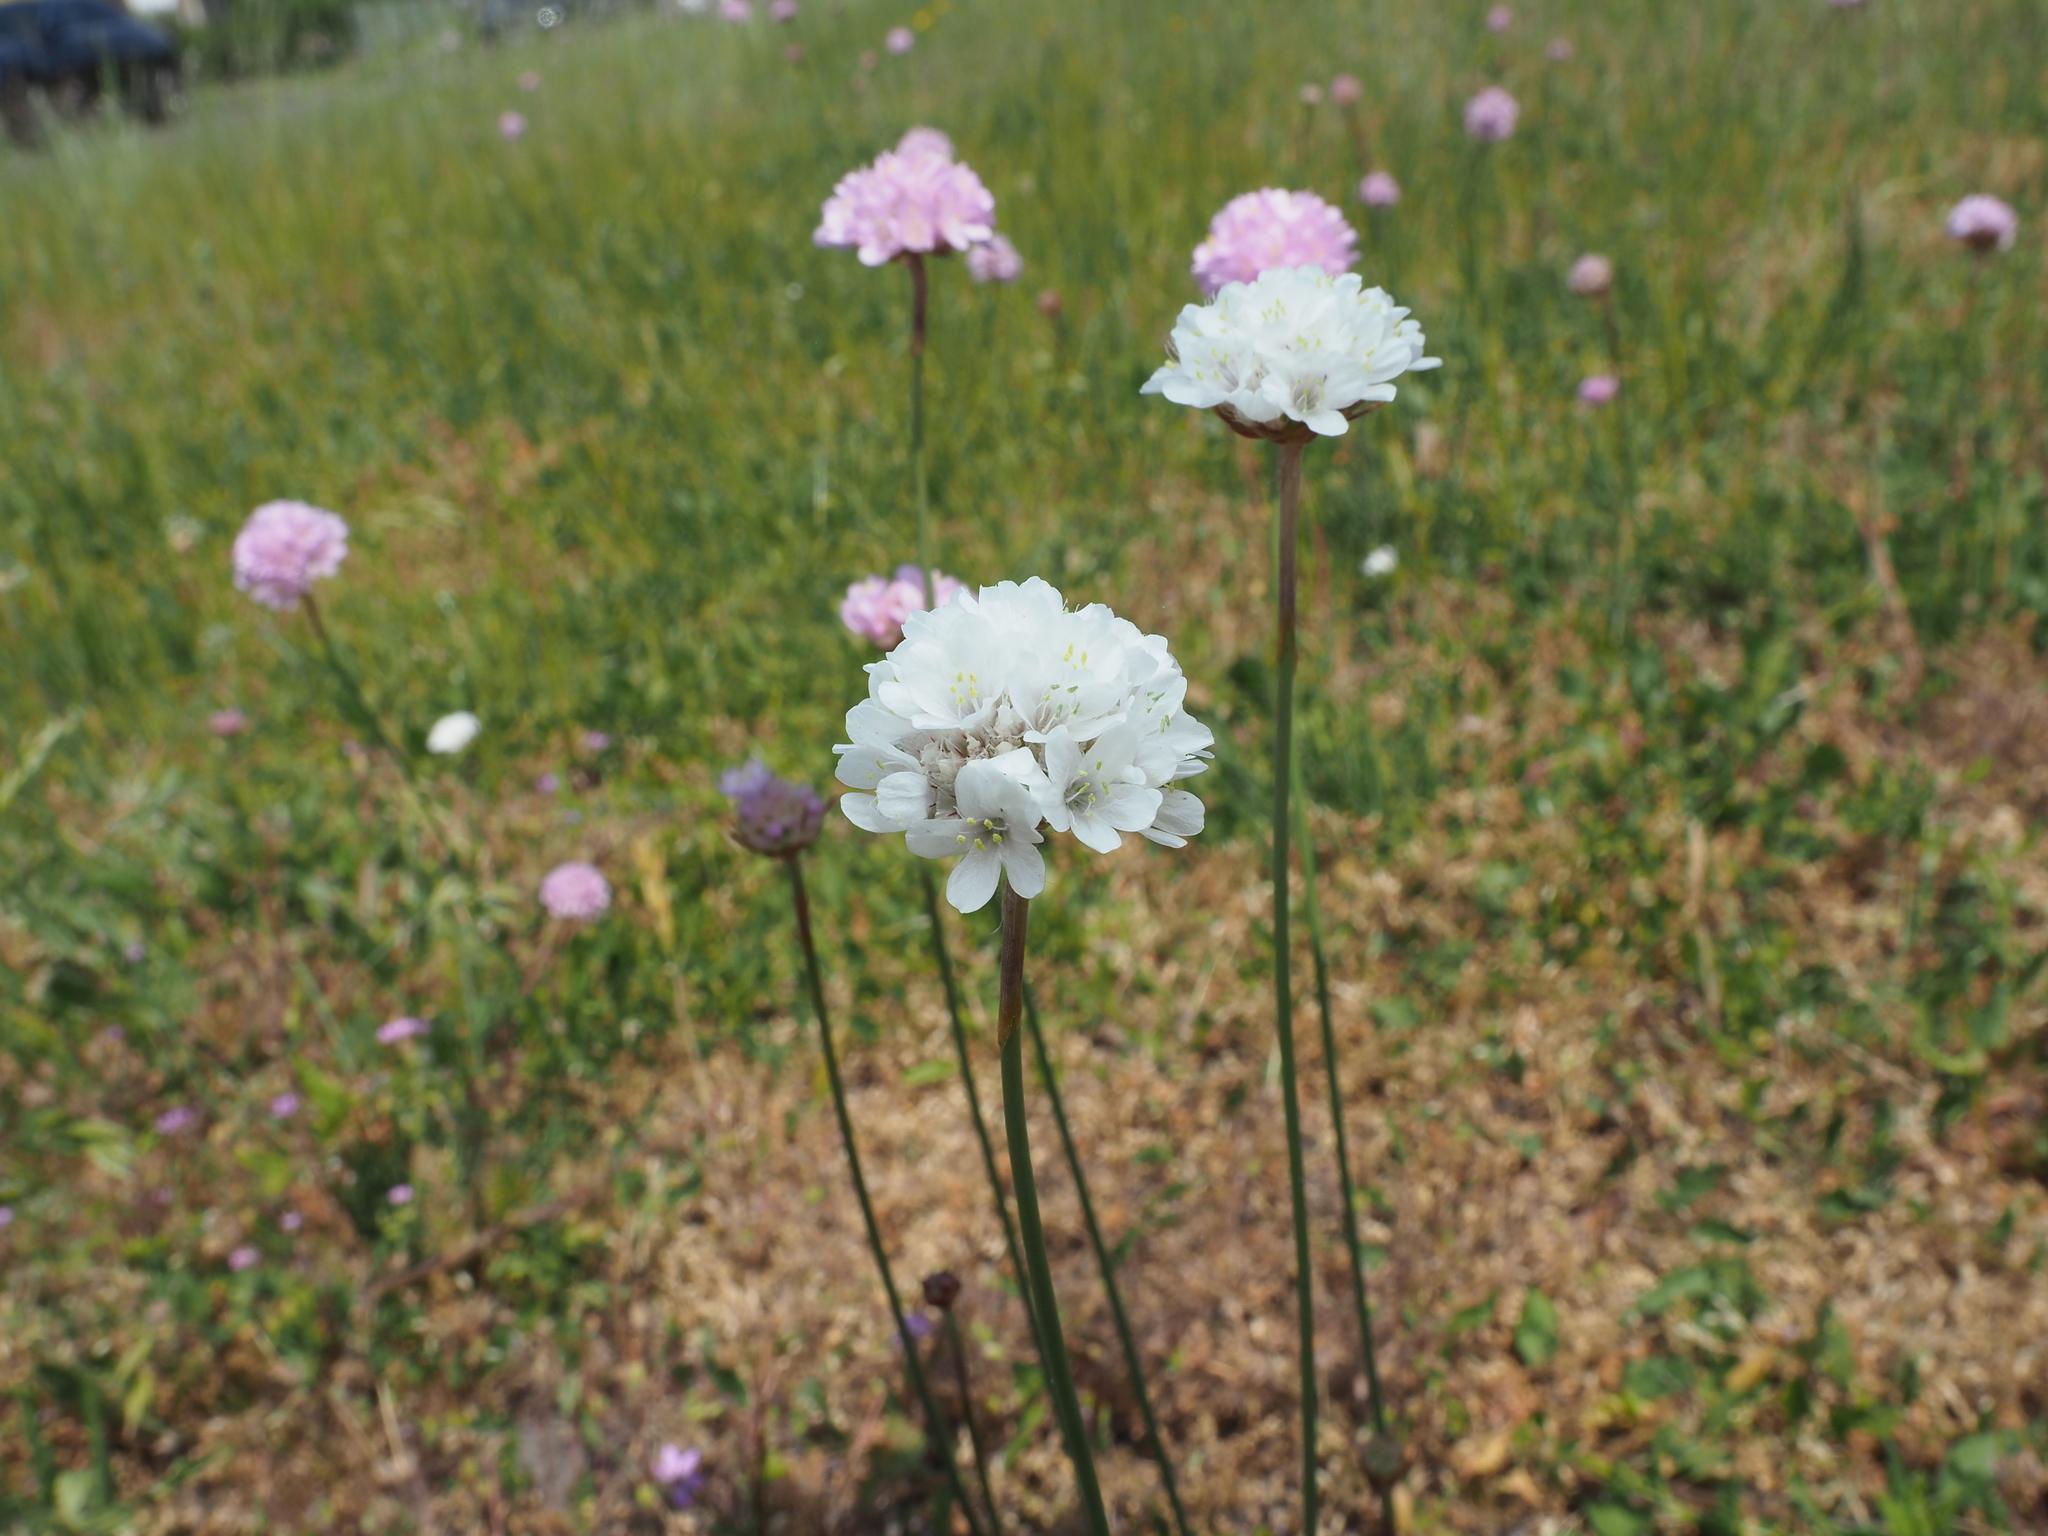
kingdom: Plantae
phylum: Tracheophyta
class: Magnoliopsida
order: Caryophyllales
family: Plumbaginaceae
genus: Armeria
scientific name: Armeria maritima
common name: Thrift
